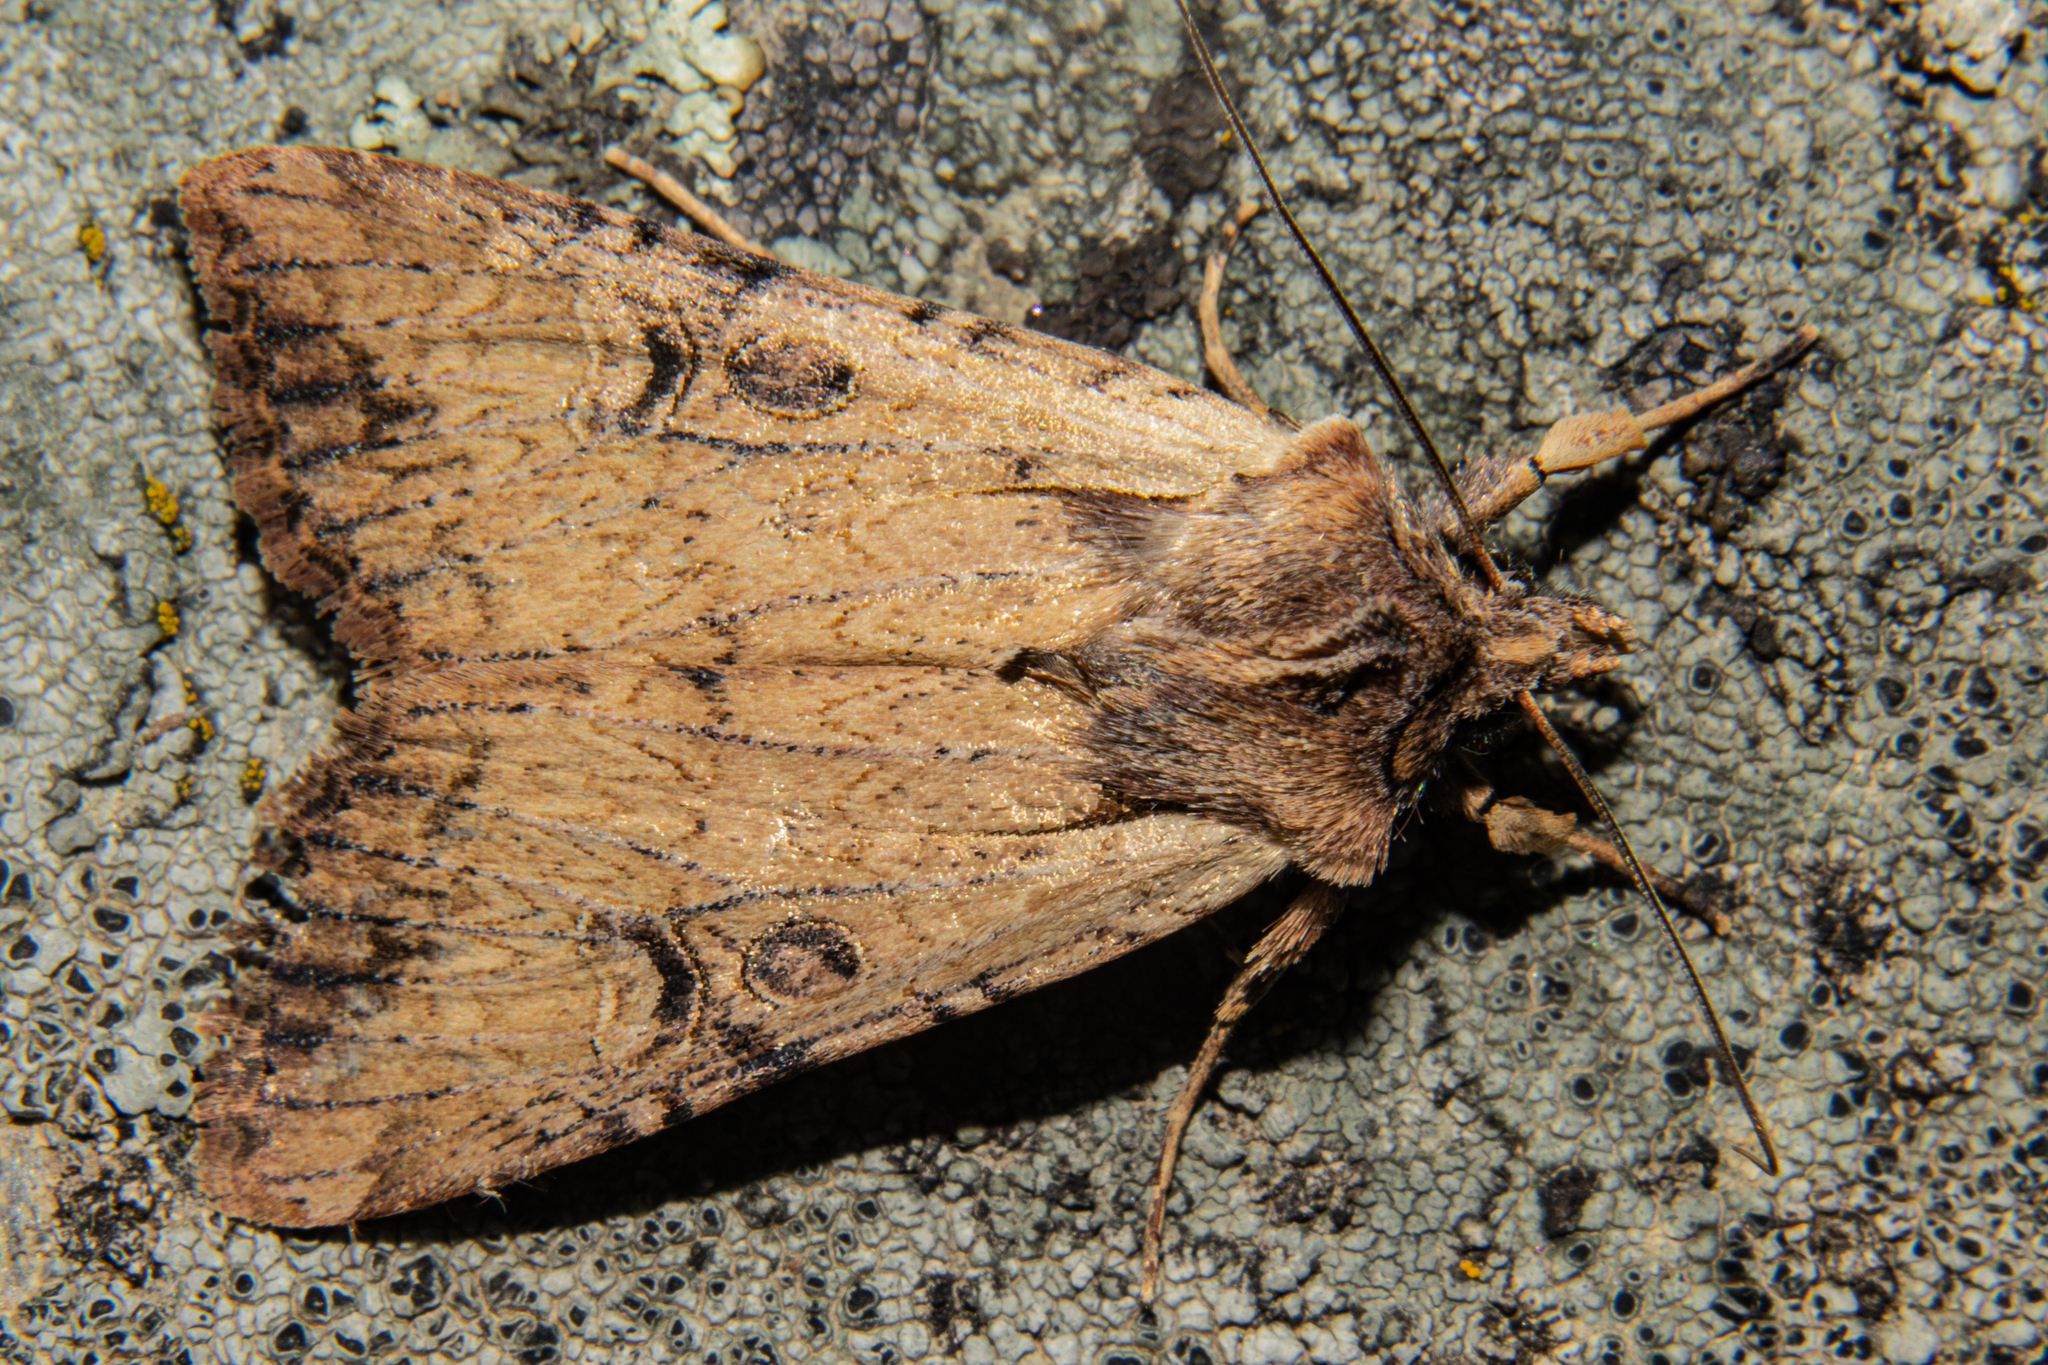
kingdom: Animalia
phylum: Arthropoda
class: Insecta
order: Lepidoptera
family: Noctuidae
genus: Ichneutica
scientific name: Ichneutica omoplaca
